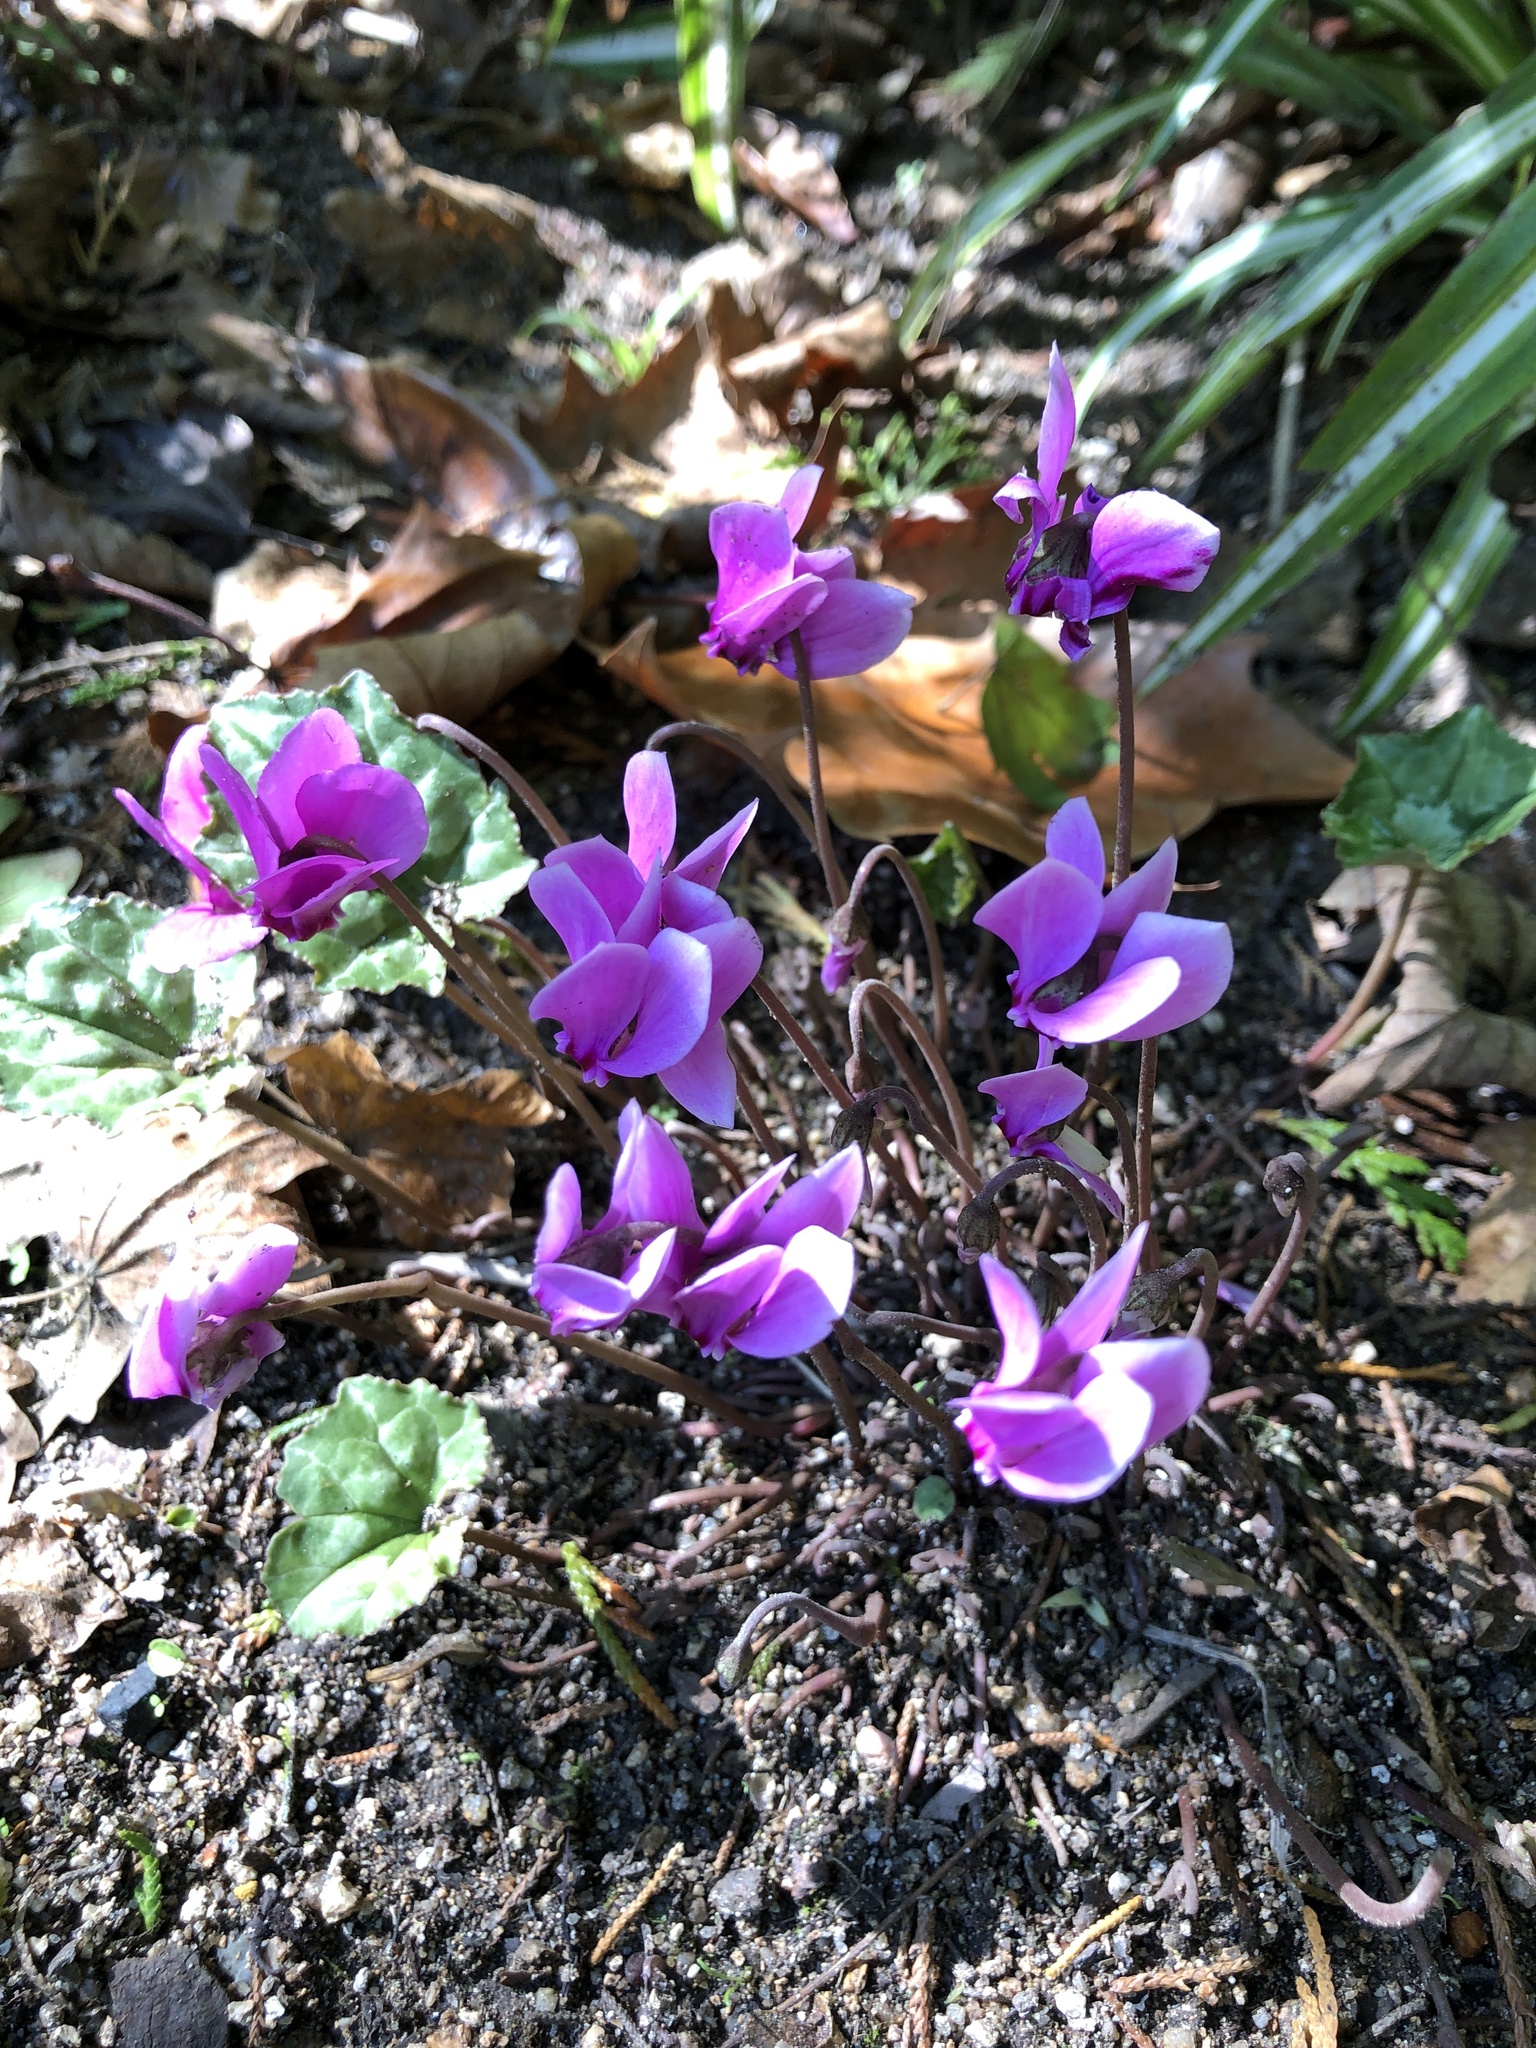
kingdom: Plantae
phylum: Tracheophyta
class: Magnoliopsida
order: Ericales
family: Primulaceae
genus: Cyclamen
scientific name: Cyclamen hederifolium
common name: Sowbread
